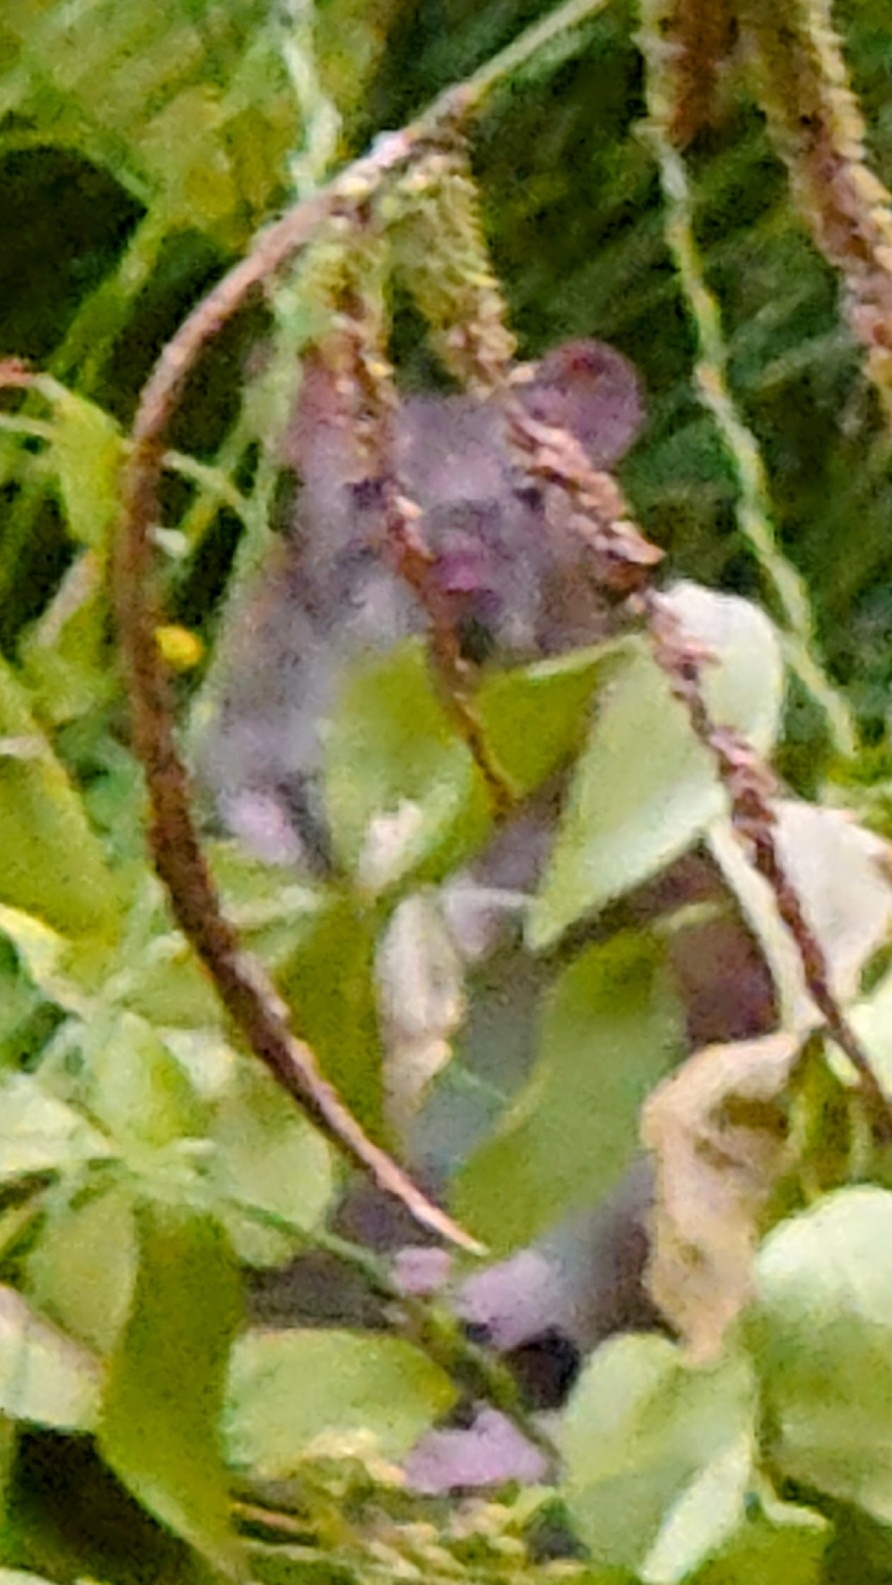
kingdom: Animalia
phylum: Chordata
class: Mammalia
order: Rodentia
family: Muridae
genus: Rattus
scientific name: Rattus norvegicus
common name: Brown rat
